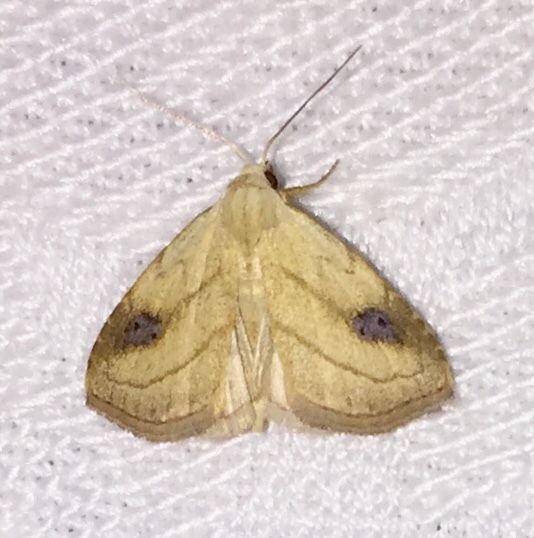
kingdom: Animalia
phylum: Arthropoda
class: Insecta
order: Lepidoptera
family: Erebidae
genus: Rivula
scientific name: Rivula propinqualis
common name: Spotted grass moth
